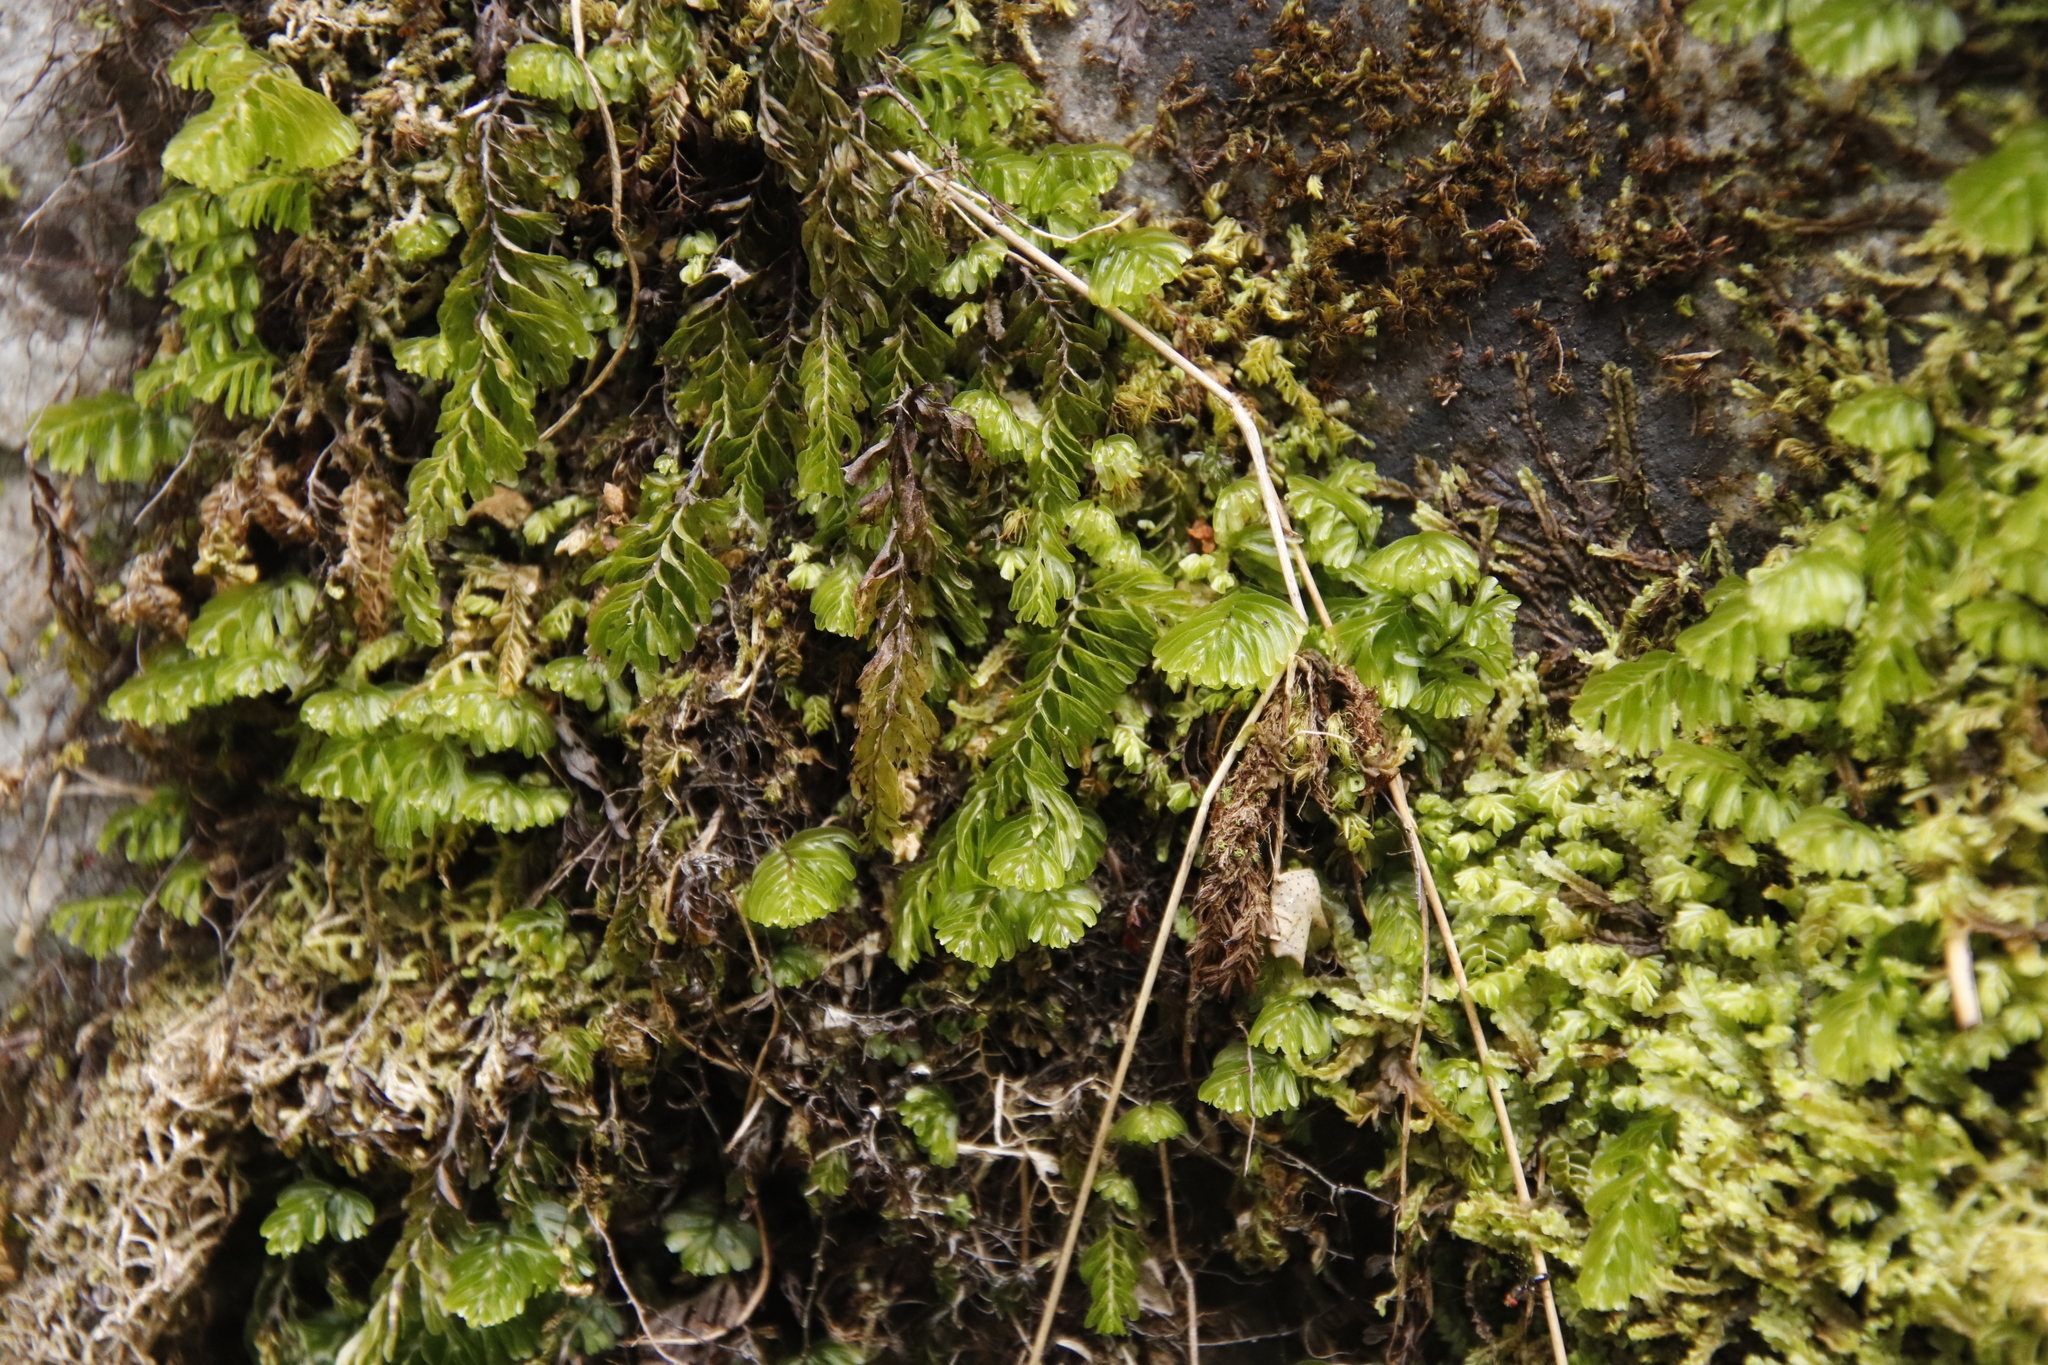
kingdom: Plantae
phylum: Tracheophyta
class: Polypodiopsida
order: Hymenophyllales
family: Hymenophyllaceae
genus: Hymenophyllum
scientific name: Hymenophyllum capense
